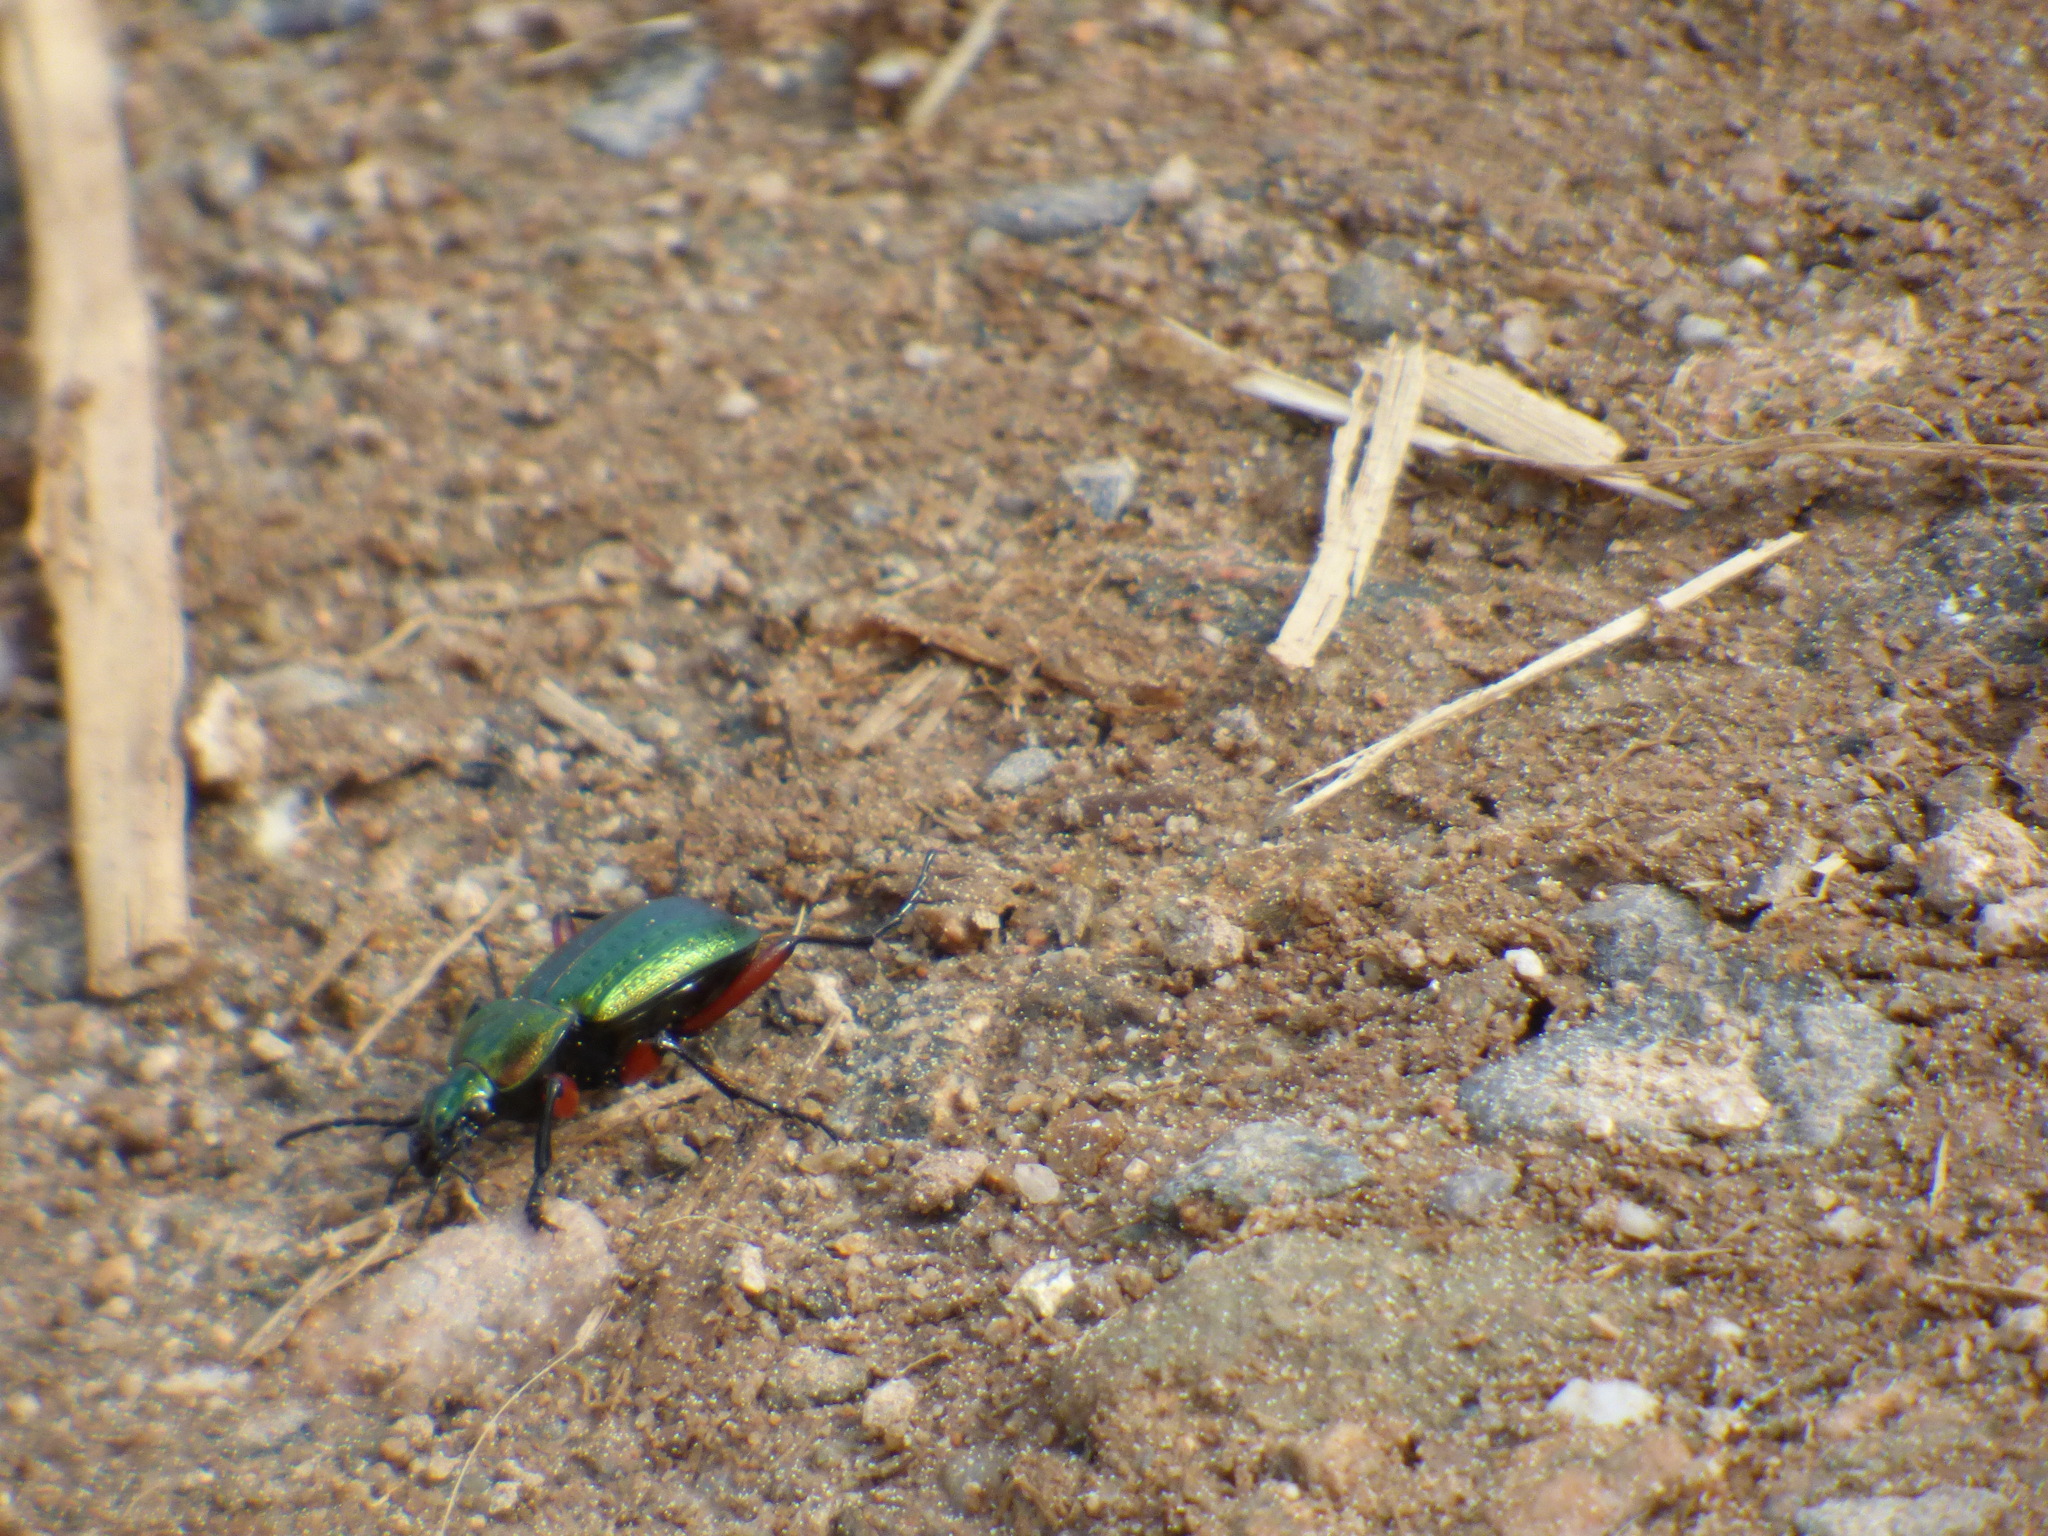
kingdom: Animalia
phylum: Arthropoda
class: Insecta
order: Coleoptera
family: Carabidae
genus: Carabus
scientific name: Carabus arvensis
